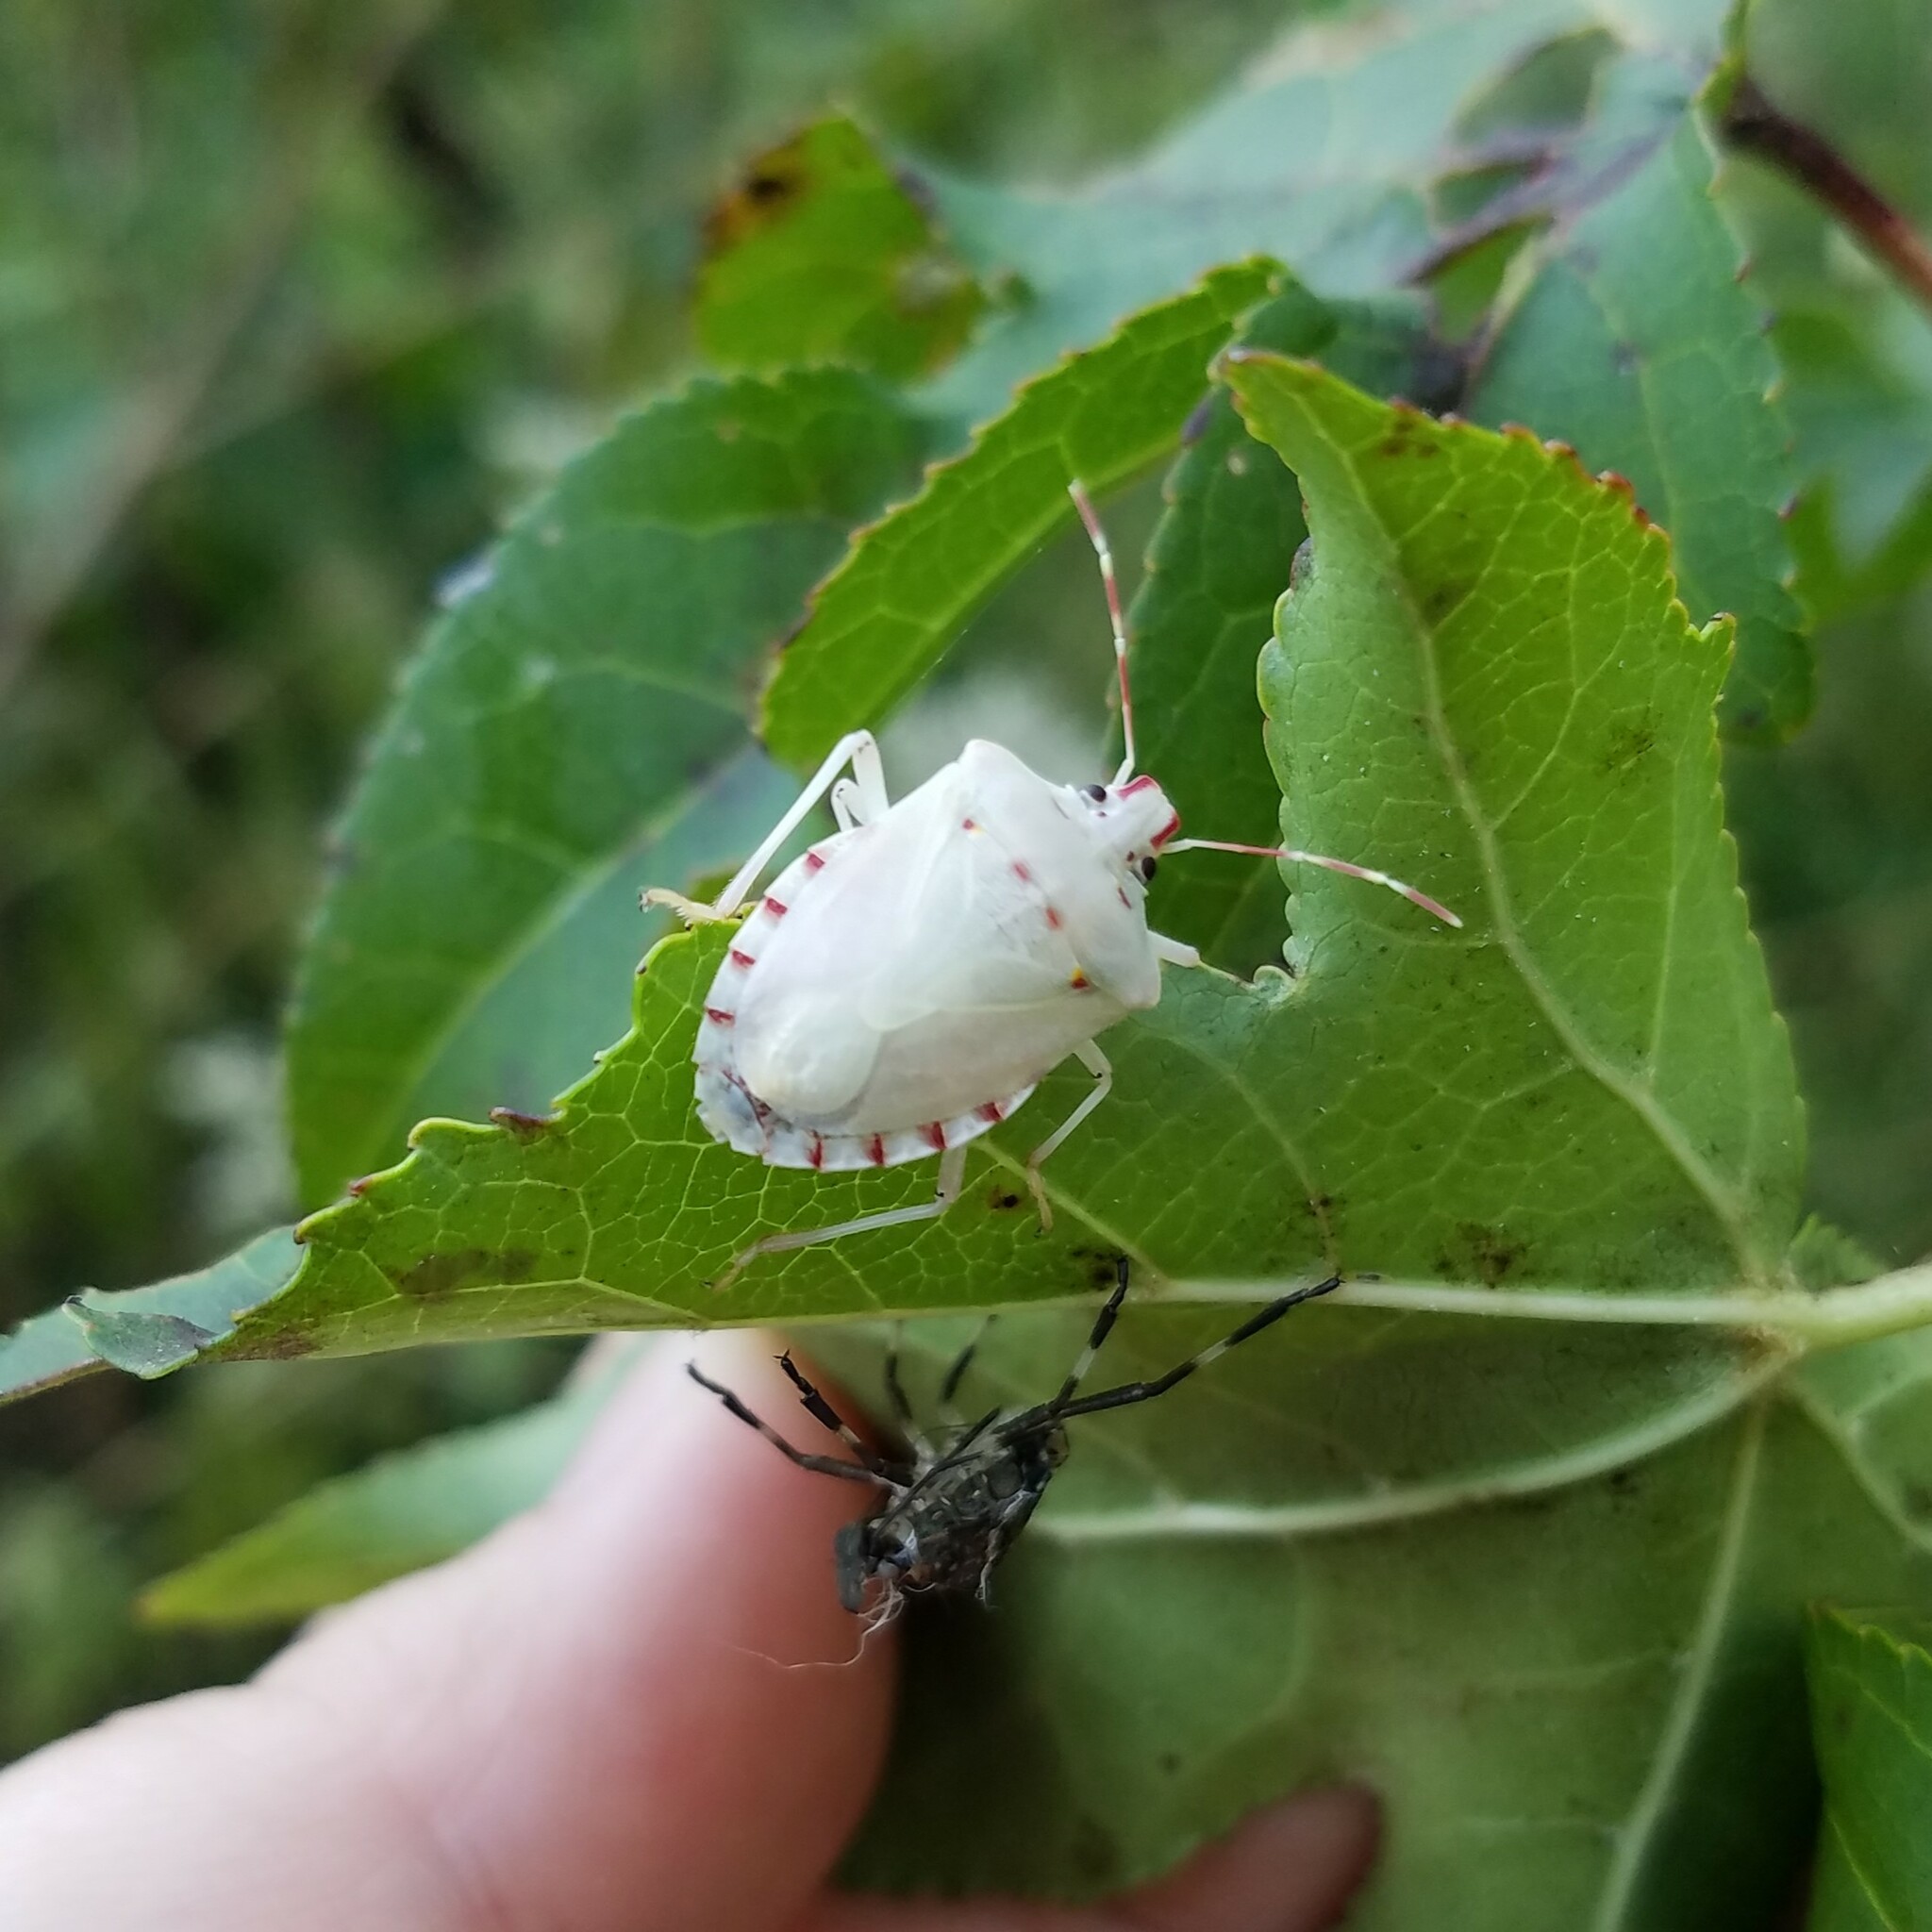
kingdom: Animalia
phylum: Arthropoda
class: Insecta
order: Hemiptera
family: Pentatomidae
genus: Halyomorpha
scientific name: Halyomorpha halys
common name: Brown marmorated stink bug
